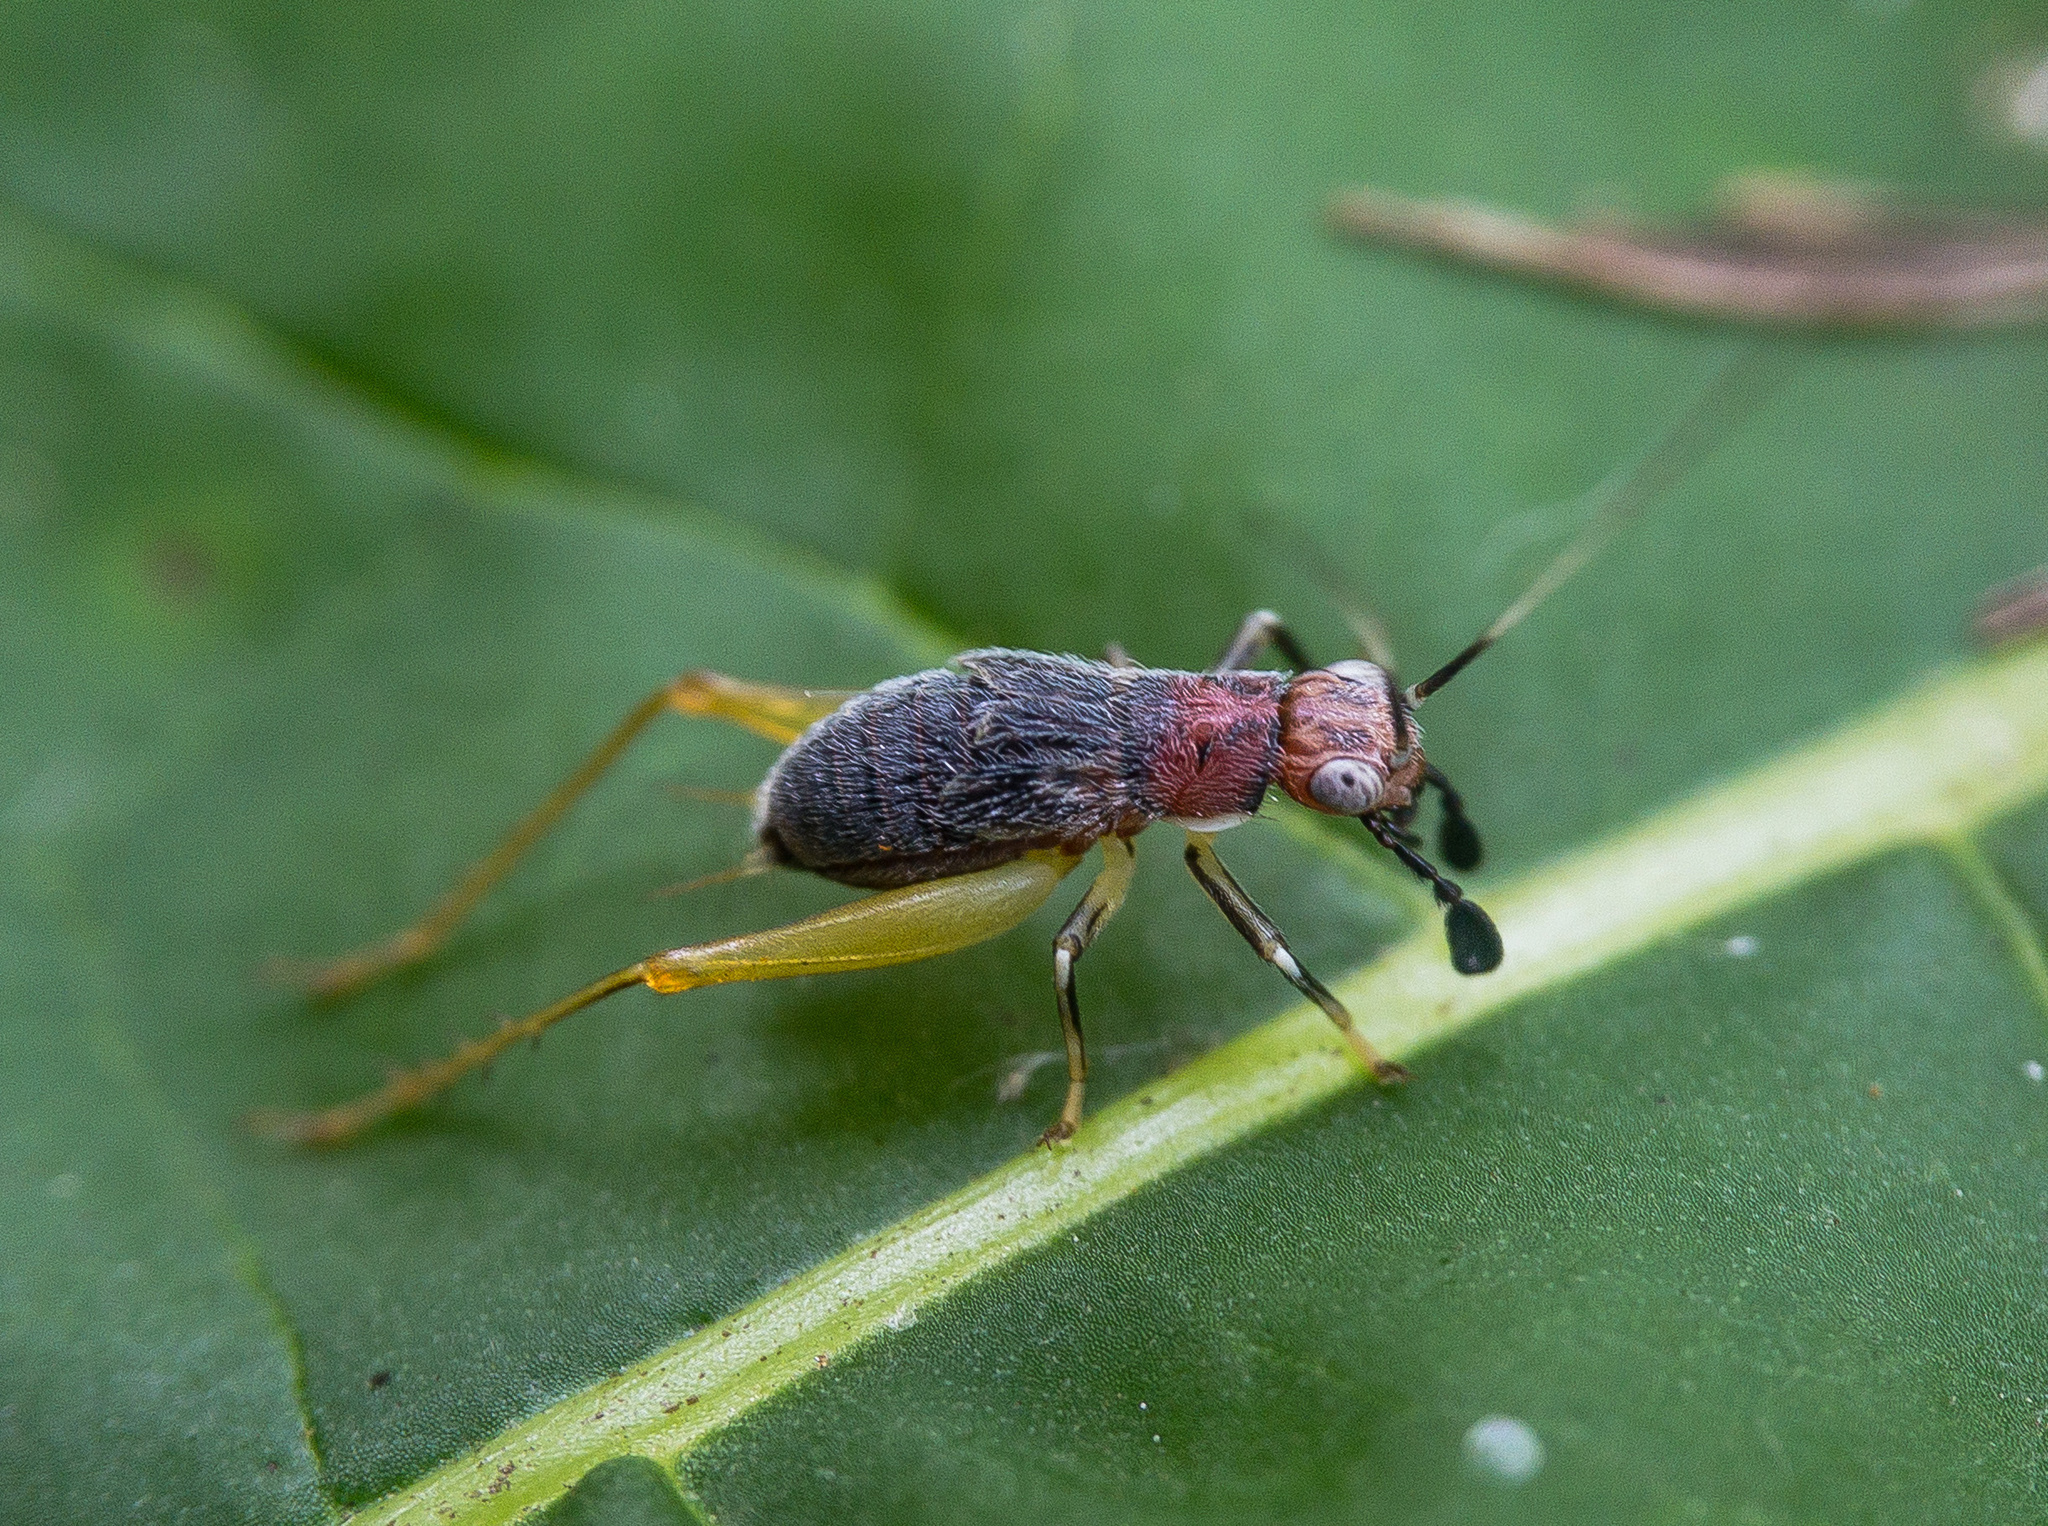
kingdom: Animalia
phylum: Arthropoda
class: Insecta
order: Orthoptera
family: Trigonidiidae
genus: Phyllopalpus
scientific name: Phyllopalpus pulchellus
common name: Handsome trig
